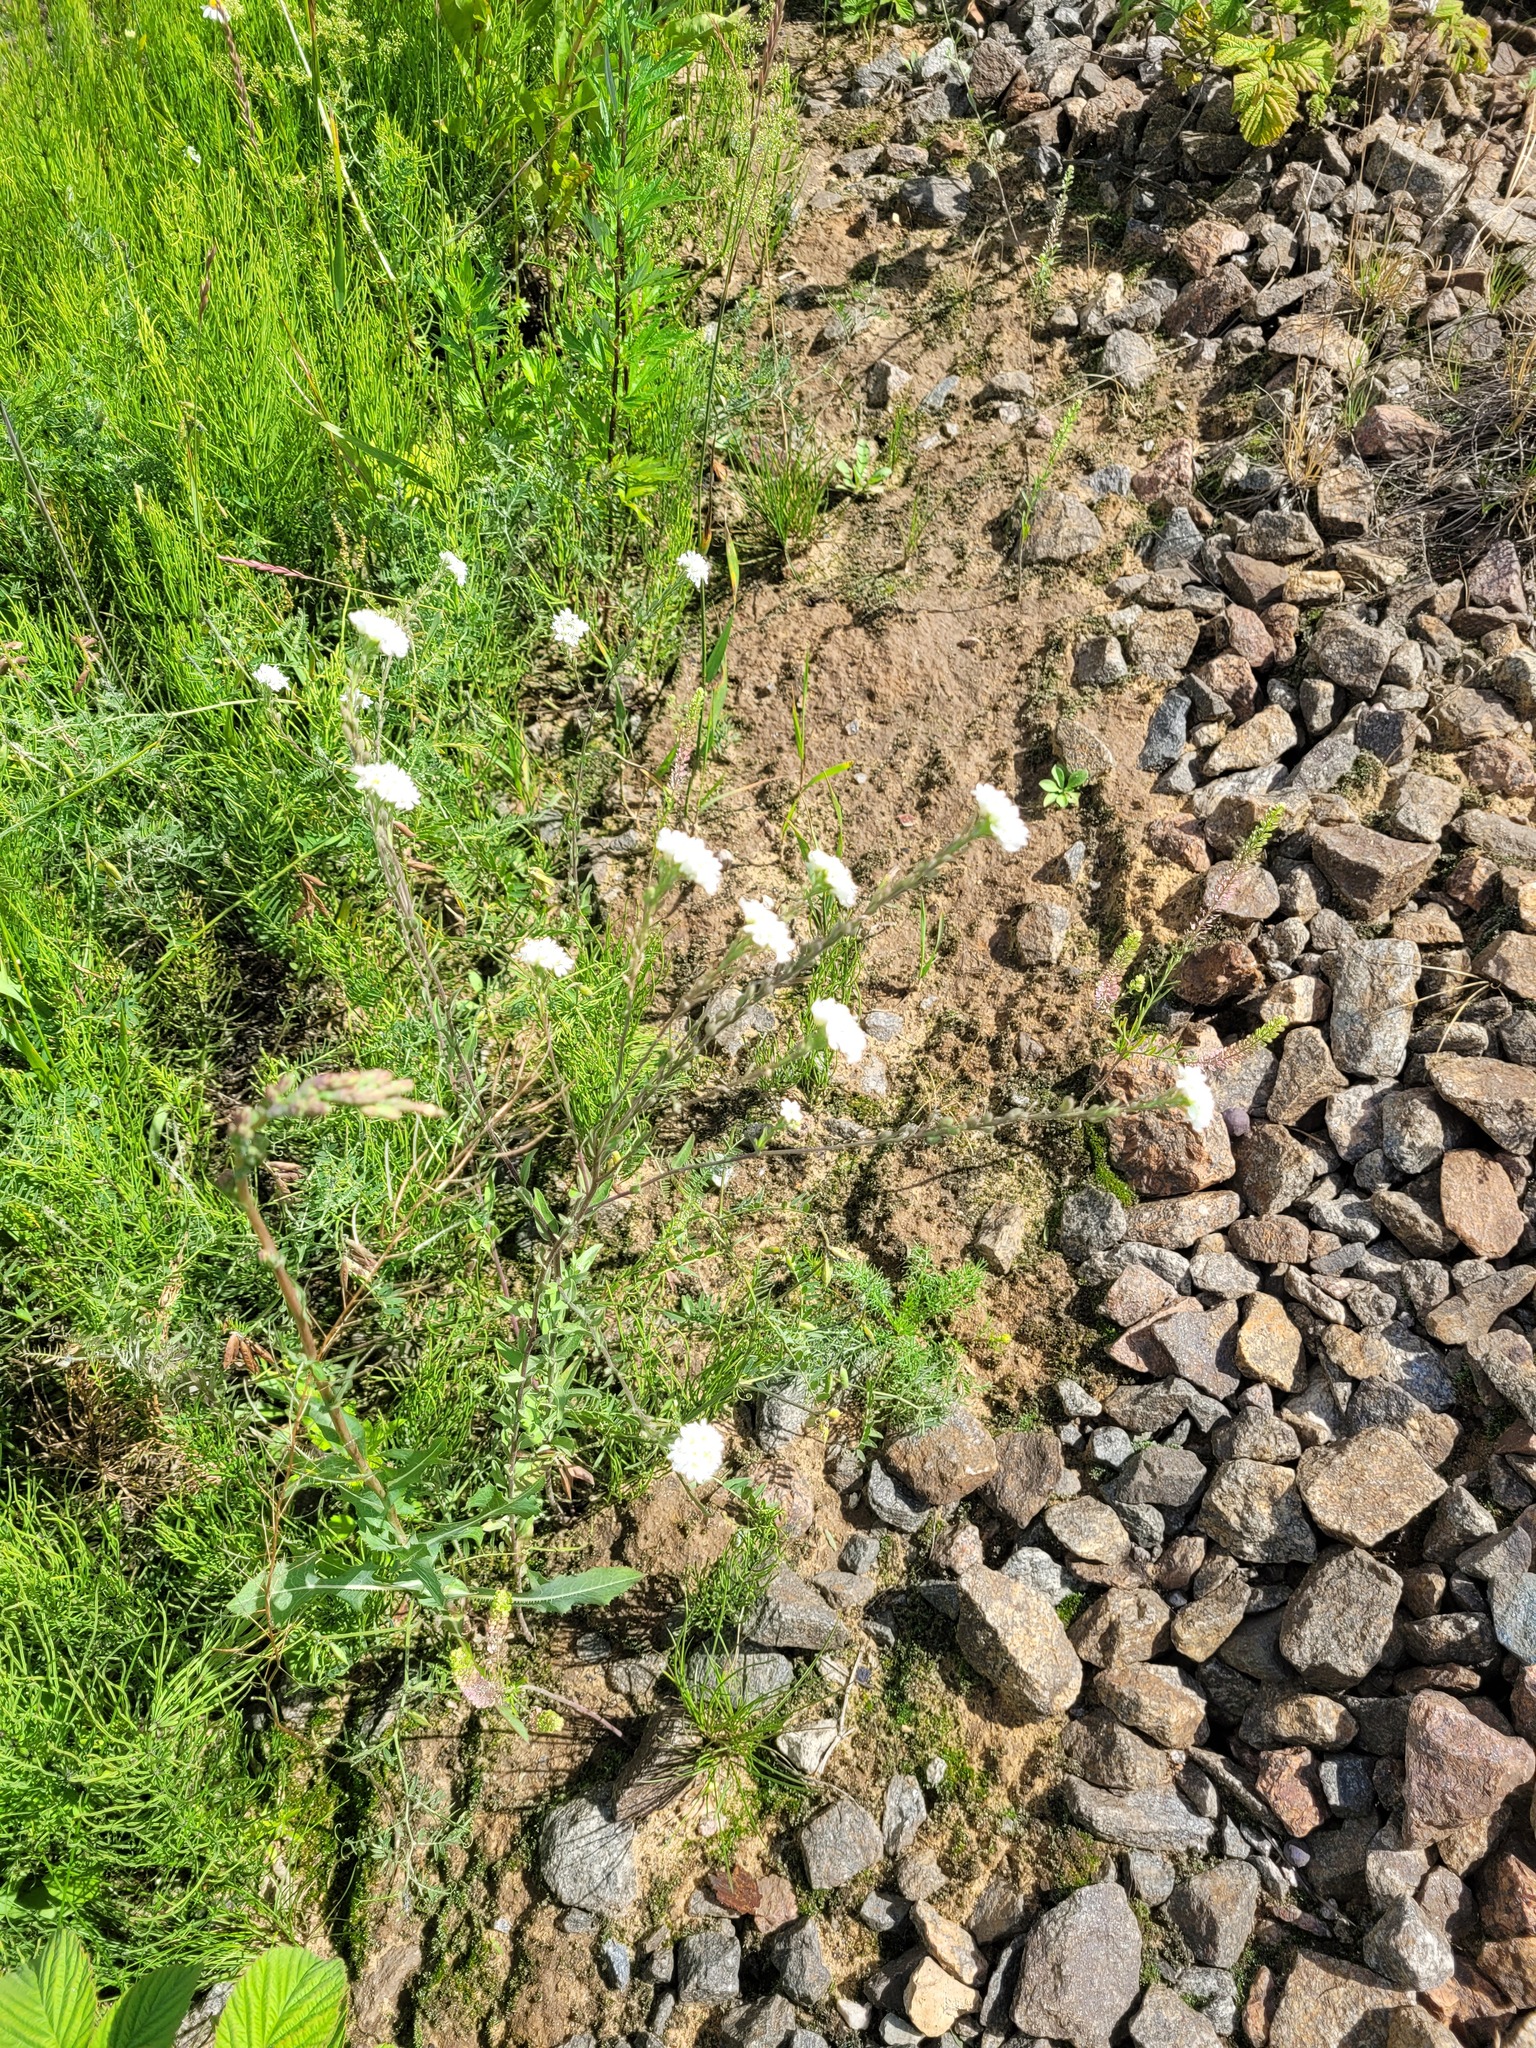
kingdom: Plantae
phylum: Tracheophyta
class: Magnoliopsida
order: Brassicales
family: Brassicaceae
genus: Berteroa
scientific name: Berteroa incana
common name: Hoary alison
